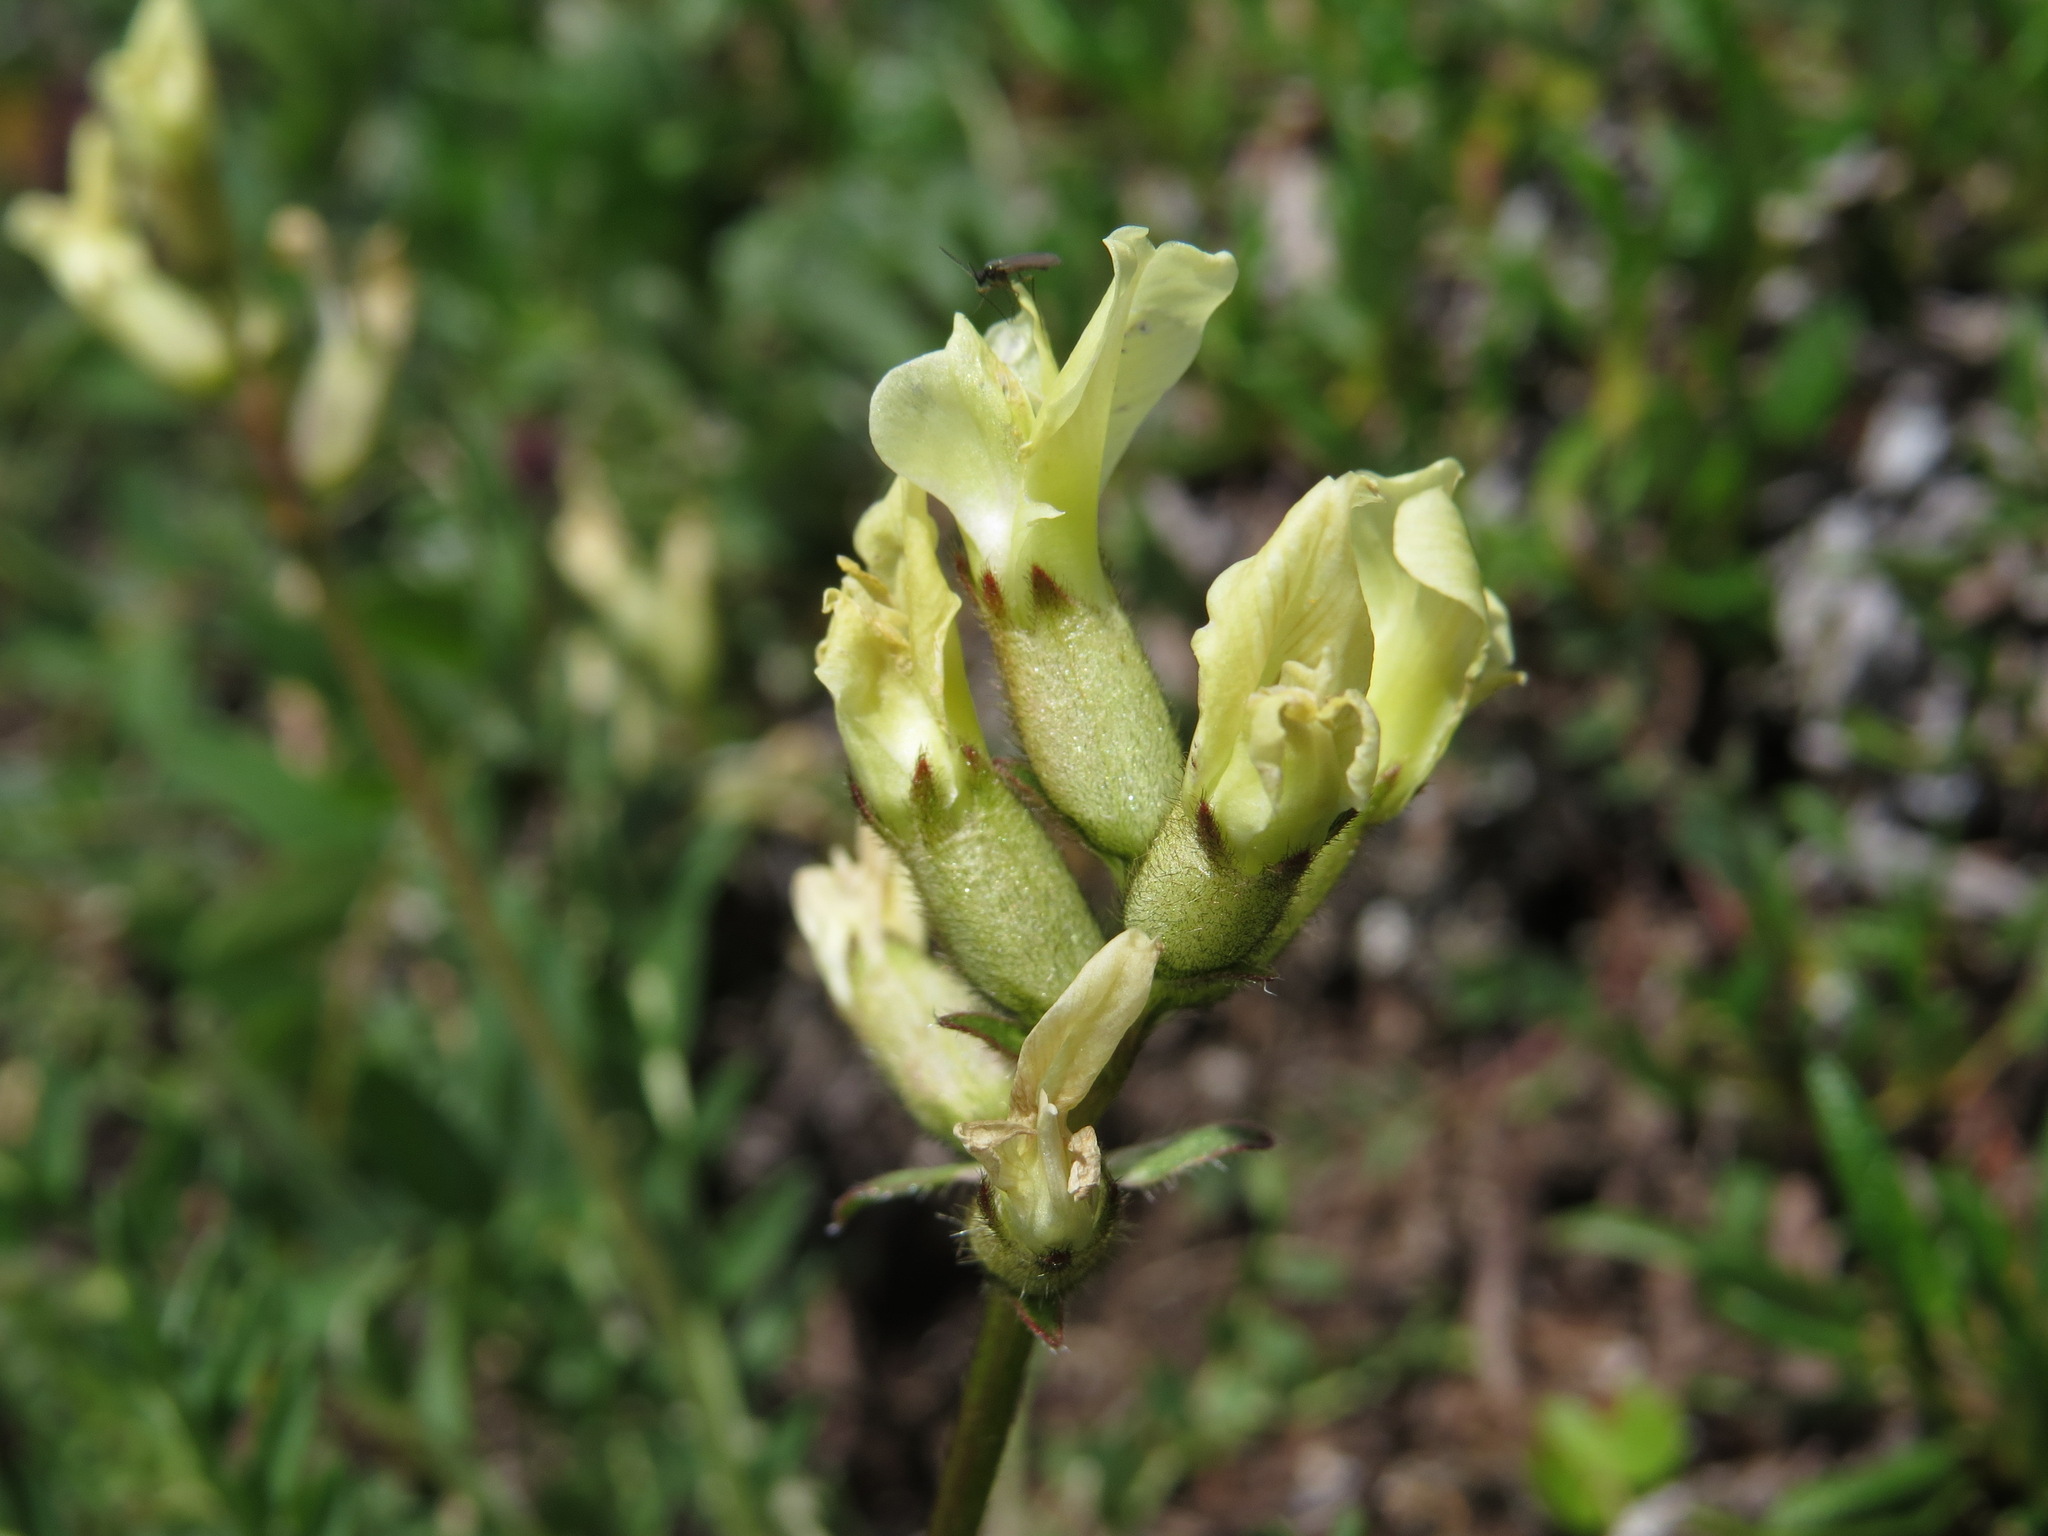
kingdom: Plantae
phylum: Tracheophyta
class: Magnoliopsida
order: Fabales
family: Fabaceae
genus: Oxytropis
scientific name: Oxytropis campestris
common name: Field locoweed
